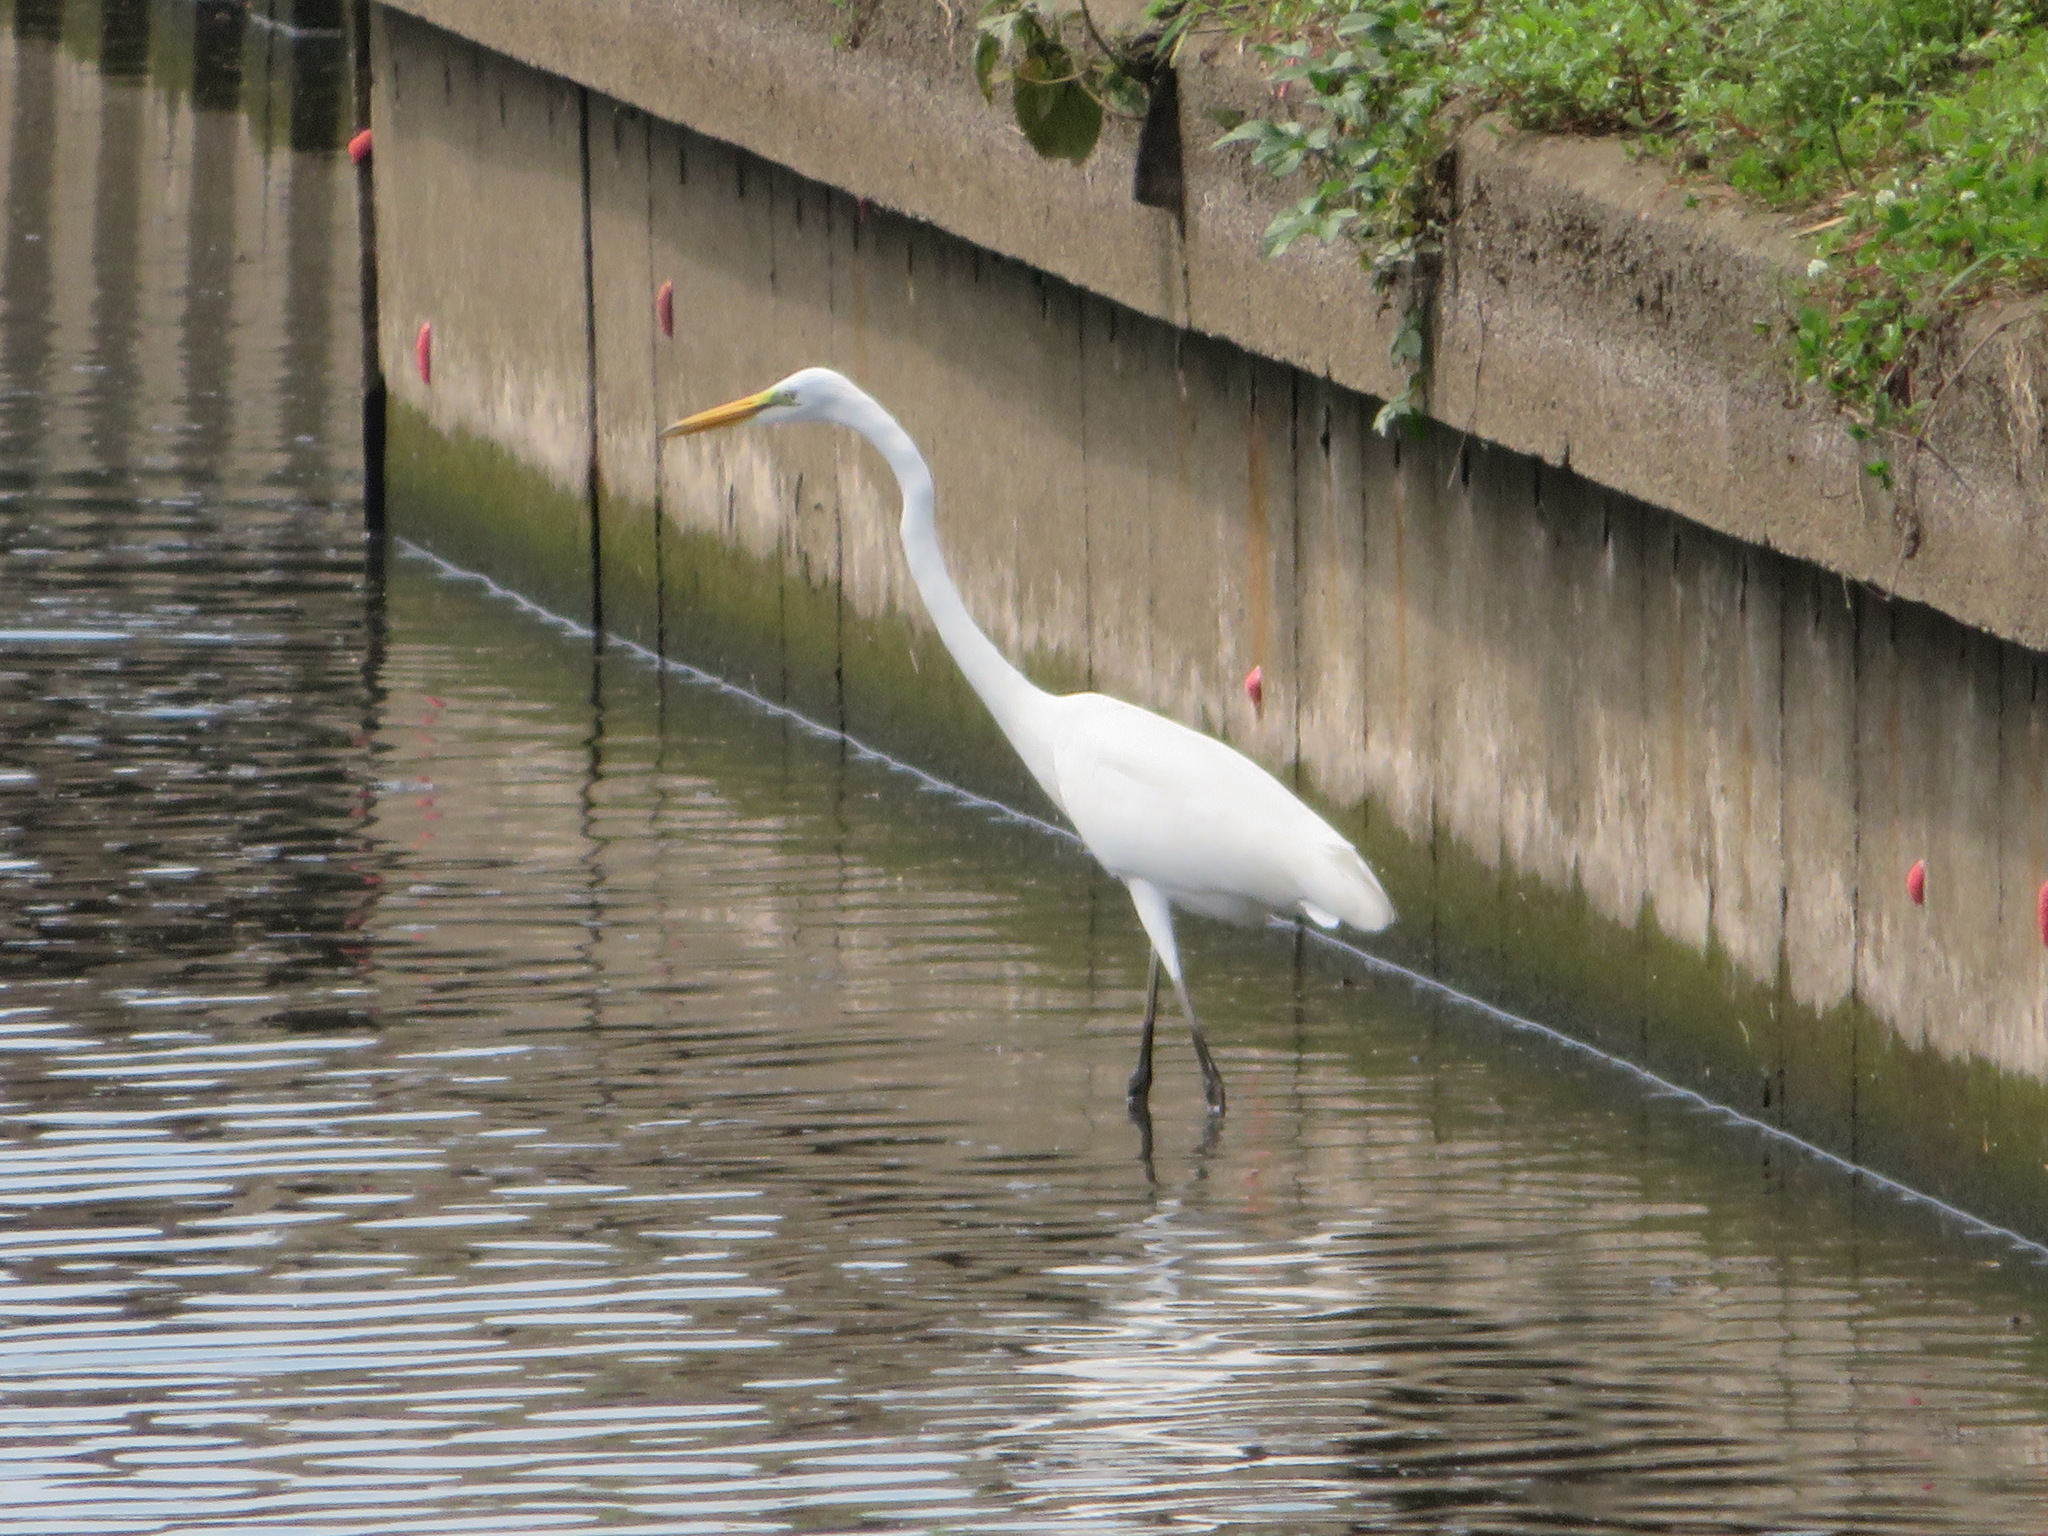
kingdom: Animalia
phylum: Chordata
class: Aves
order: Pelecaniformes
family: Ardeidae
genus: Ardea
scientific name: Ardea modesta
